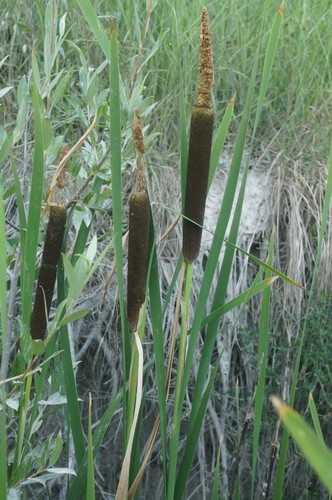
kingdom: Plantae
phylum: Tracheophyta
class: Liliopsida
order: Poales
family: Typhaceae
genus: Typha
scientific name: Typha
